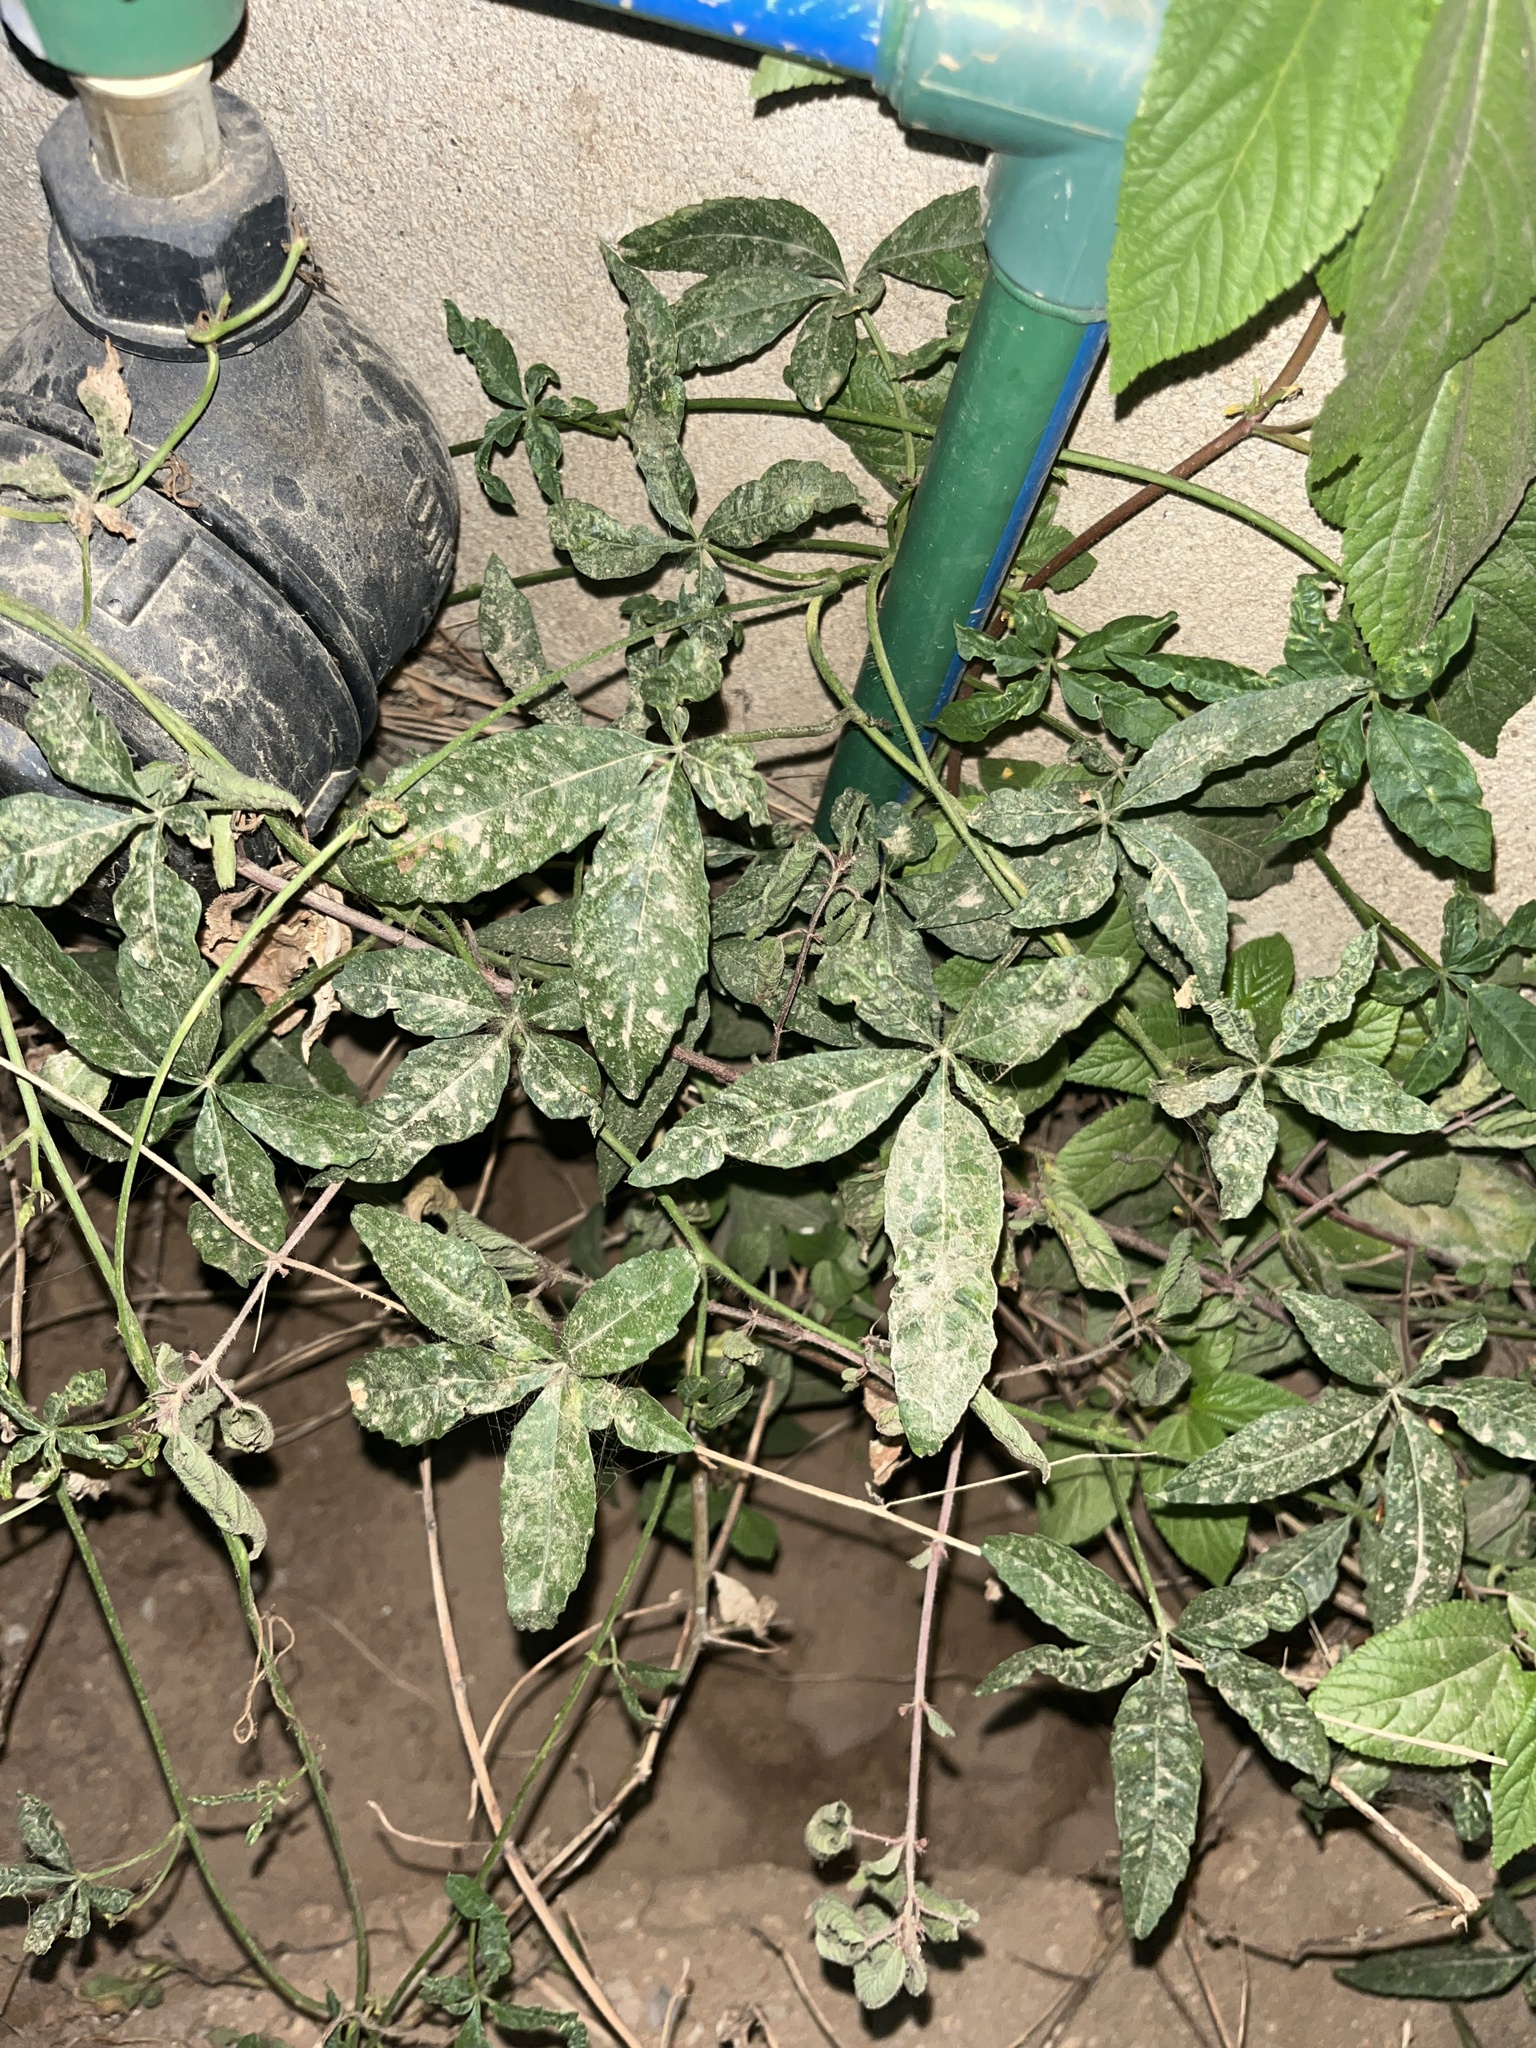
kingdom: Plantae
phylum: Tracheophyta
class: Magnoliopsida
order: Solanales
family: Convolvulaceae
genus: Distimake
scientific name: Distimake quinquefolius
